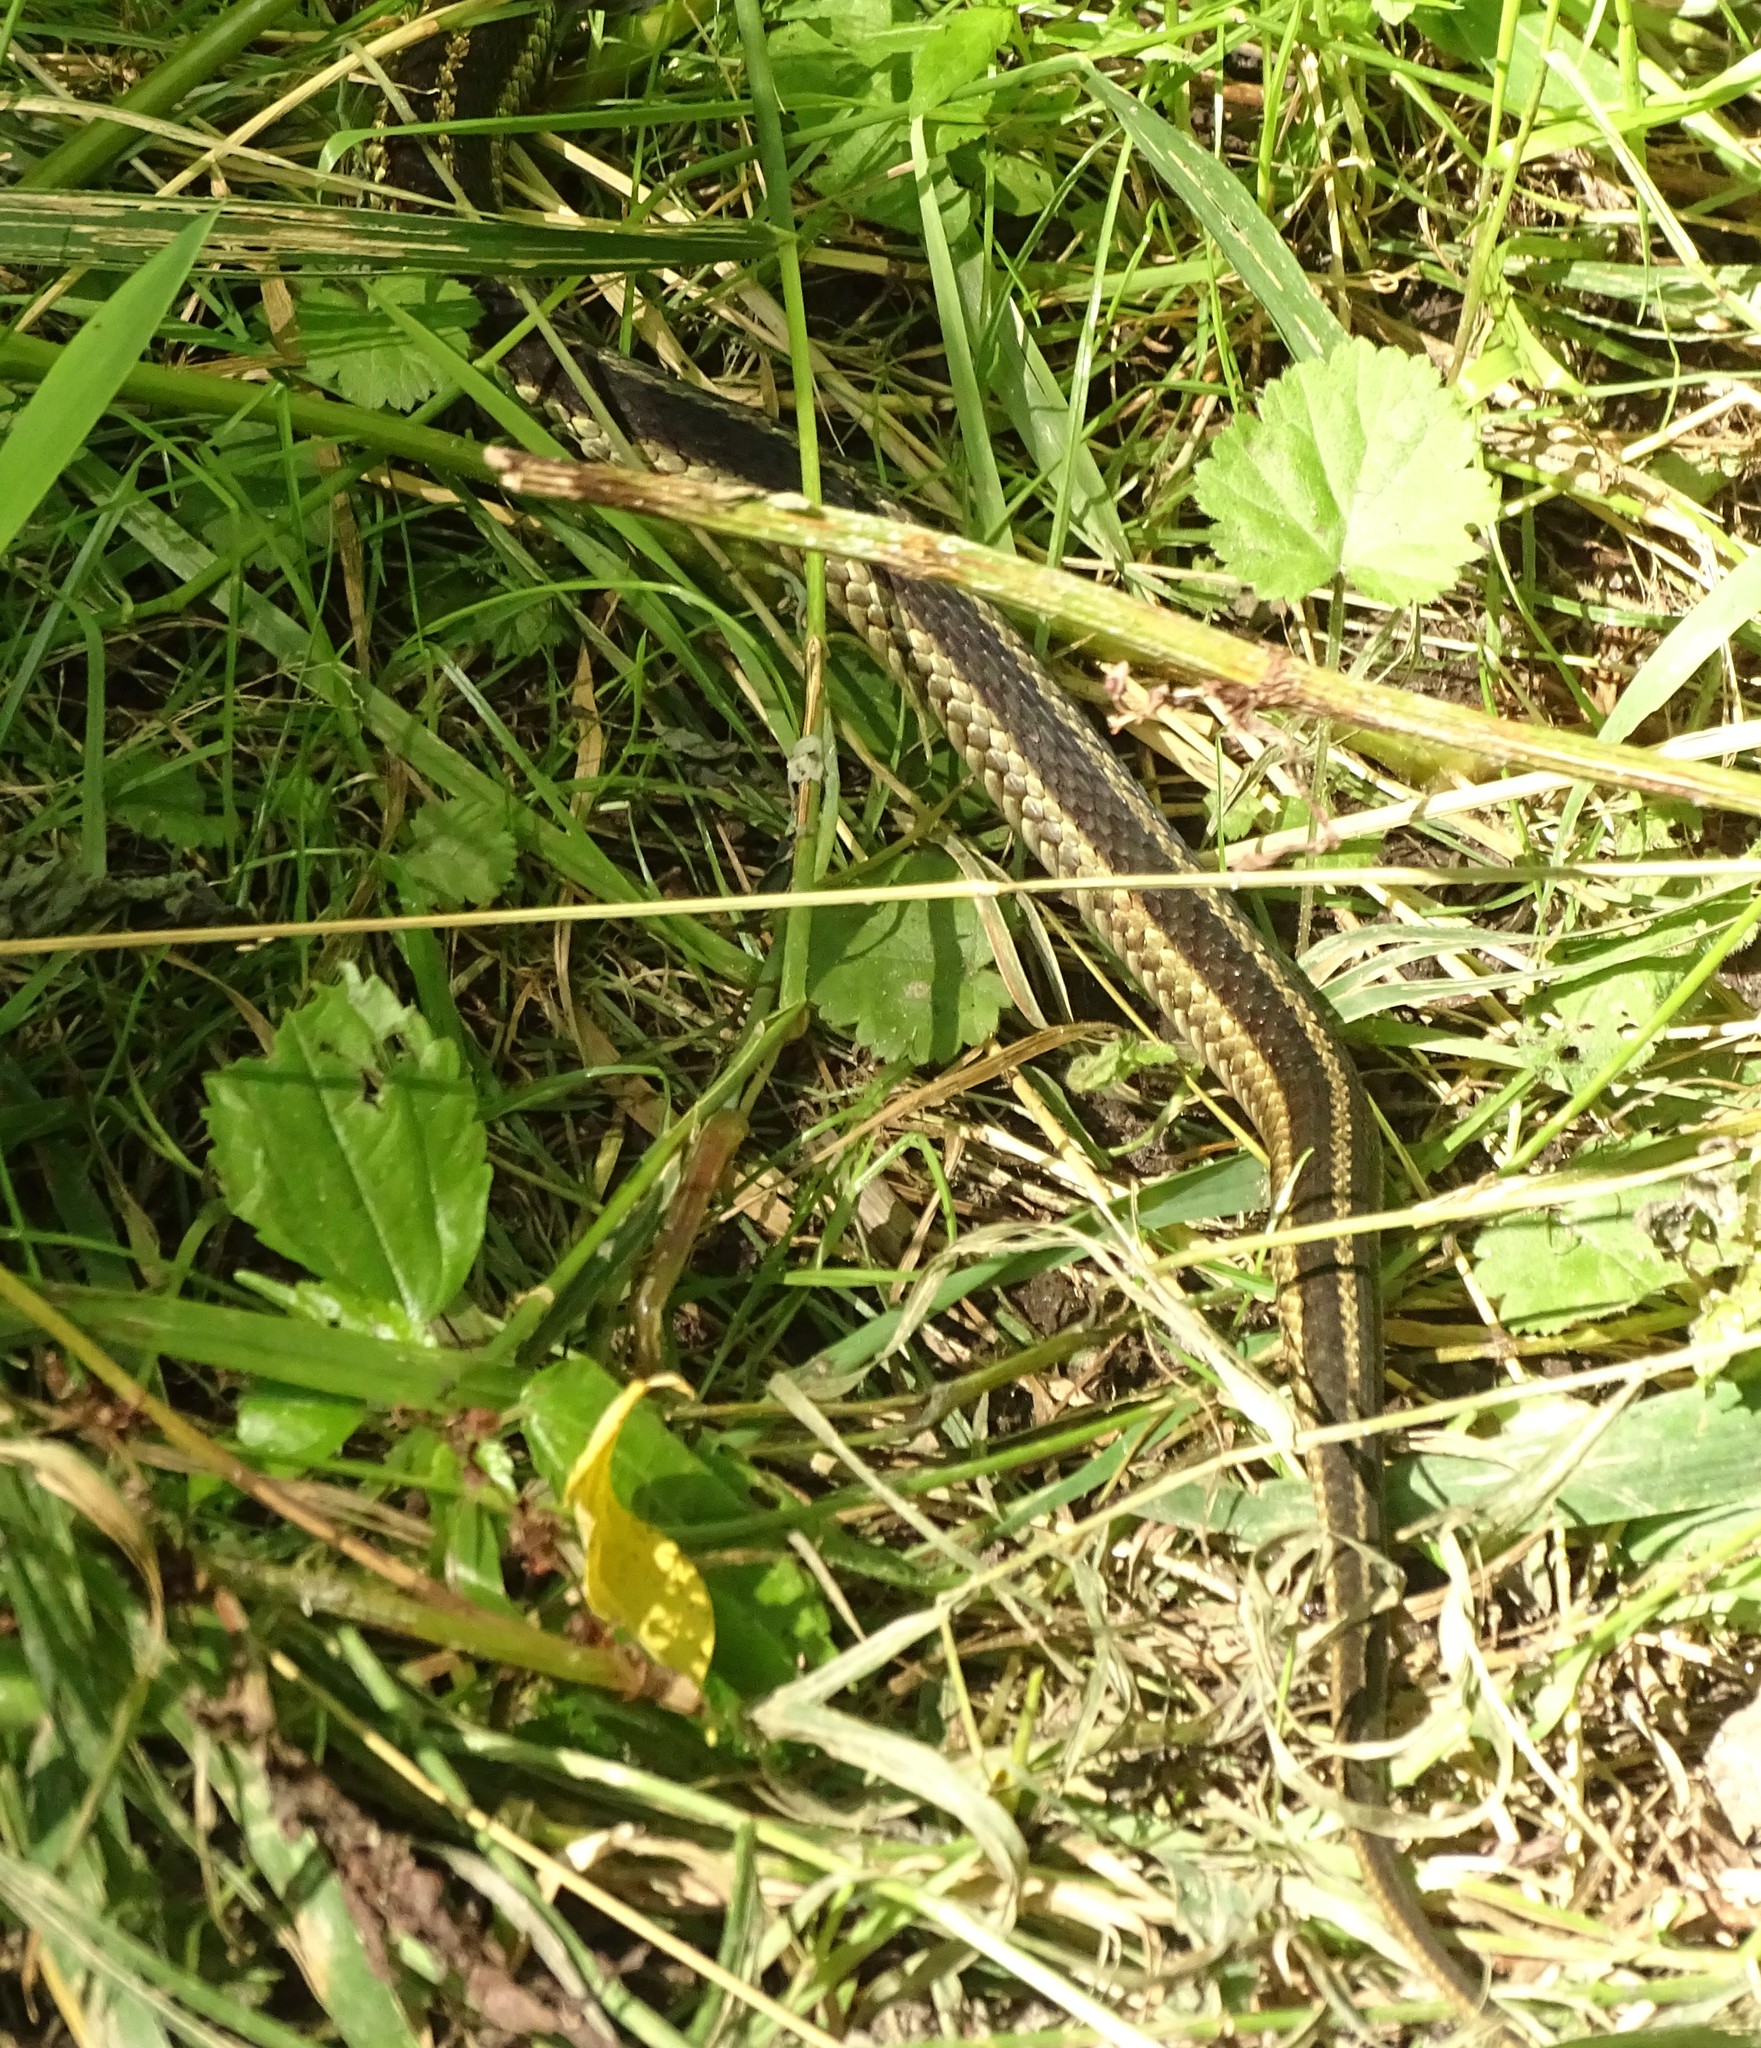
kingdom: Animalia
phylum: Chordata
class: Squamata
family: Colubridae
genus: Thamnophis
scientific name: Thamnophis sirtalis
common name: Common garter snake
